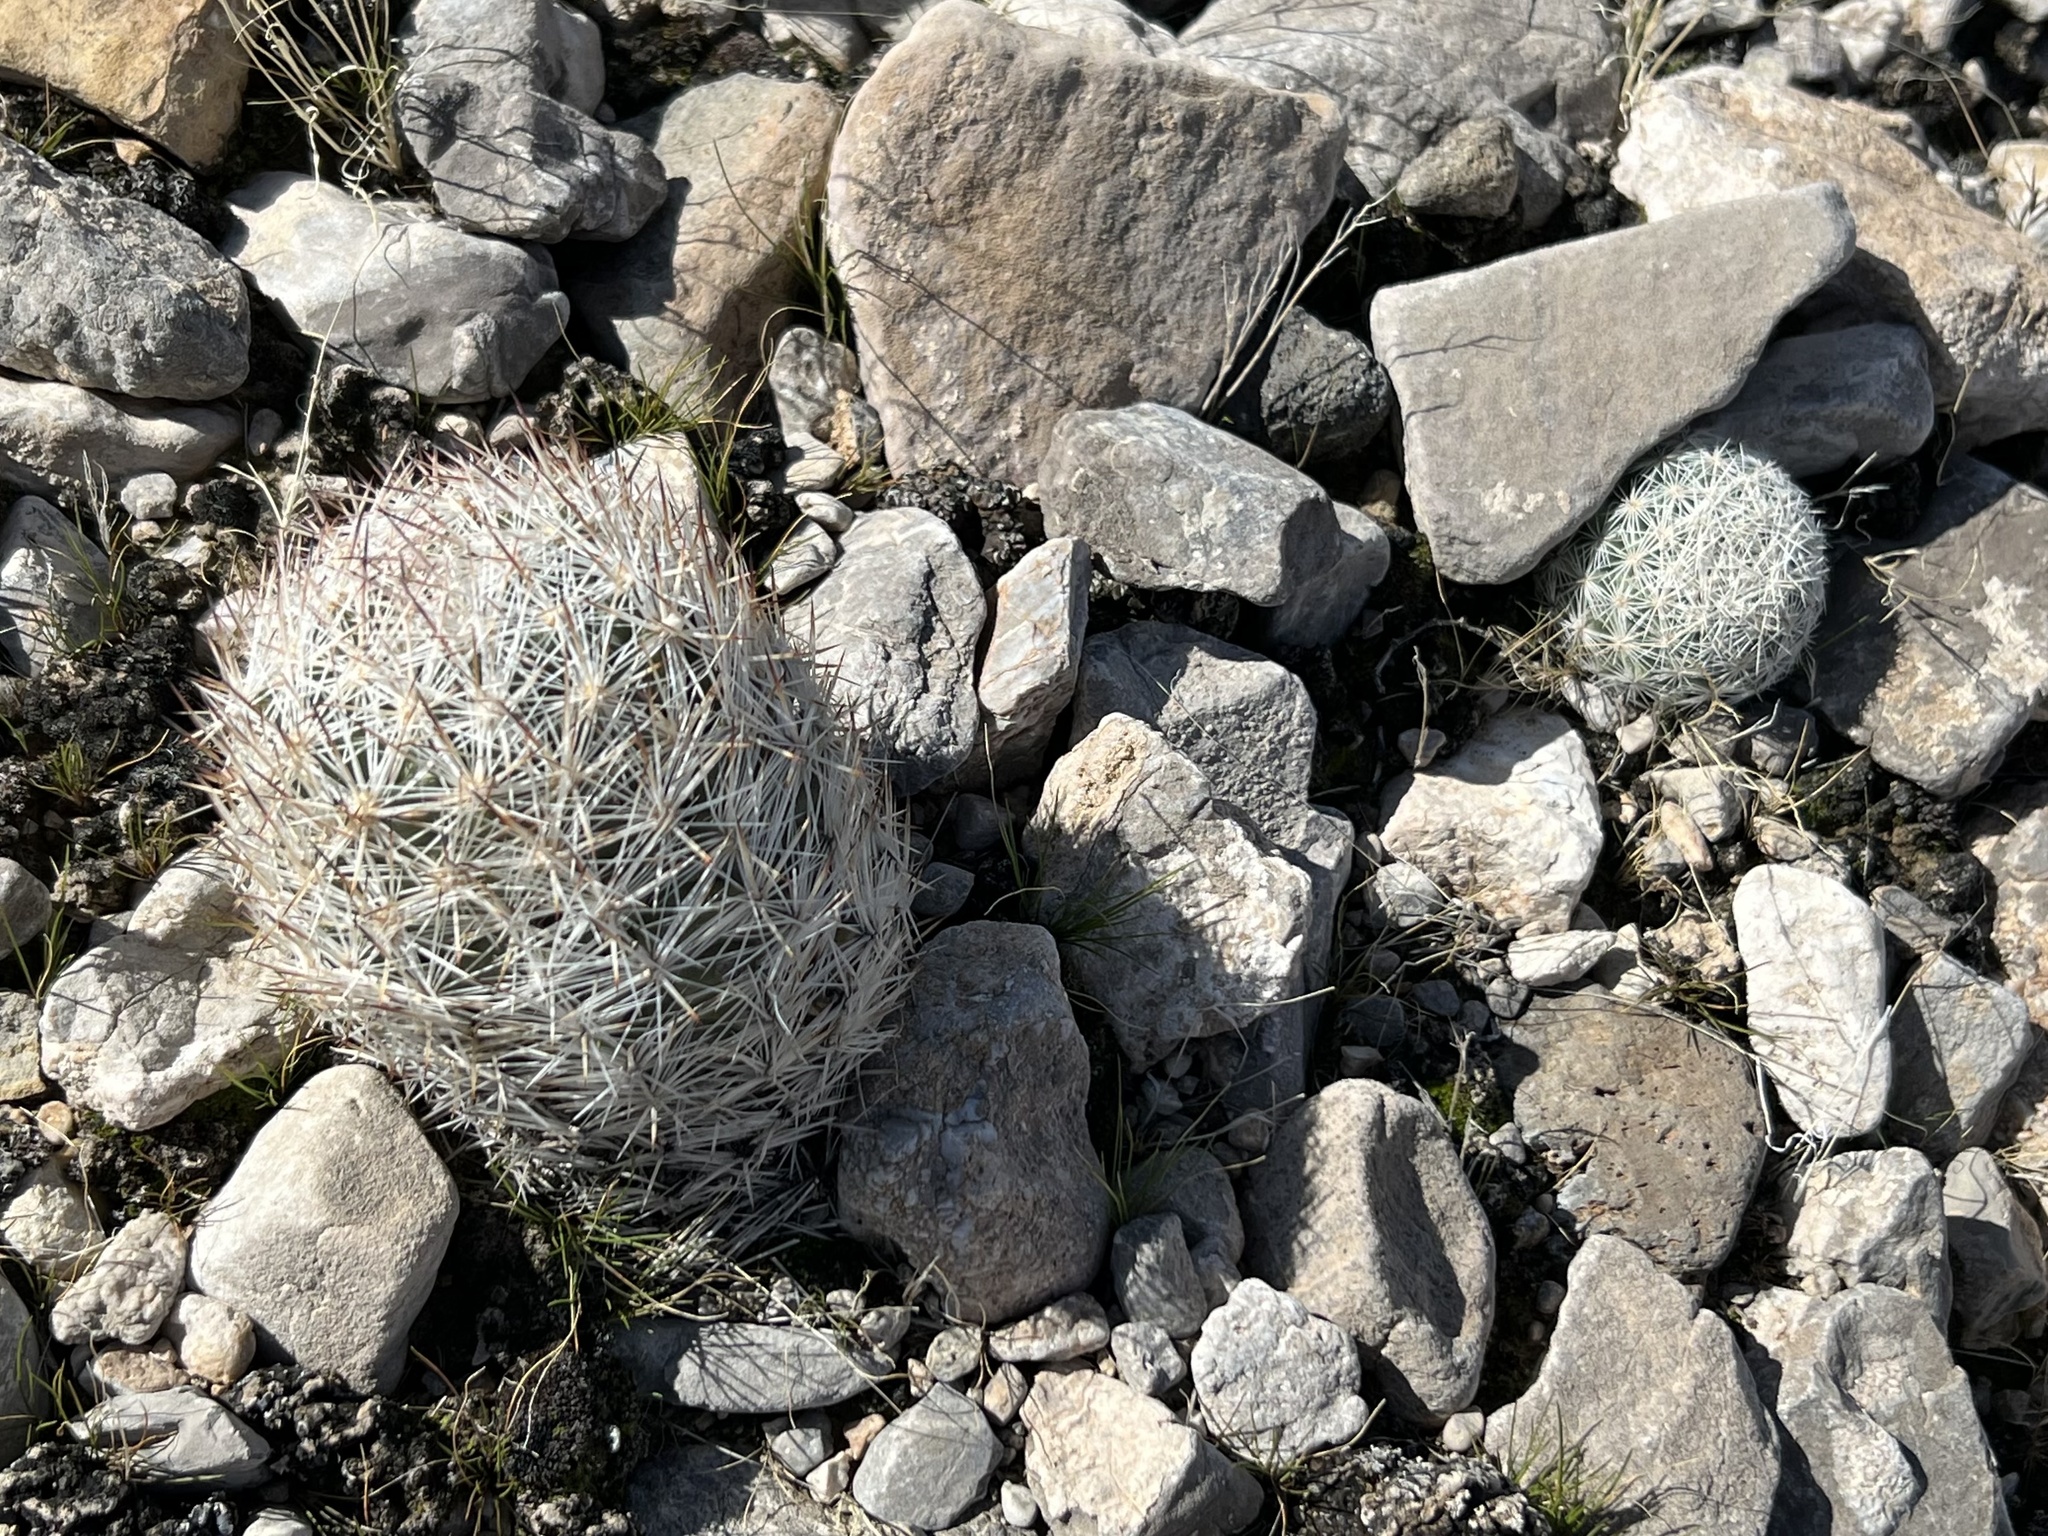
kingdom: Plantae
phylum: Tracheophyta
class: Magnoliopsida
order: Caryophyllales
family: Cactaceae
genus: Pelecyphora
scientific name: Pelecyphora dasyacantha
